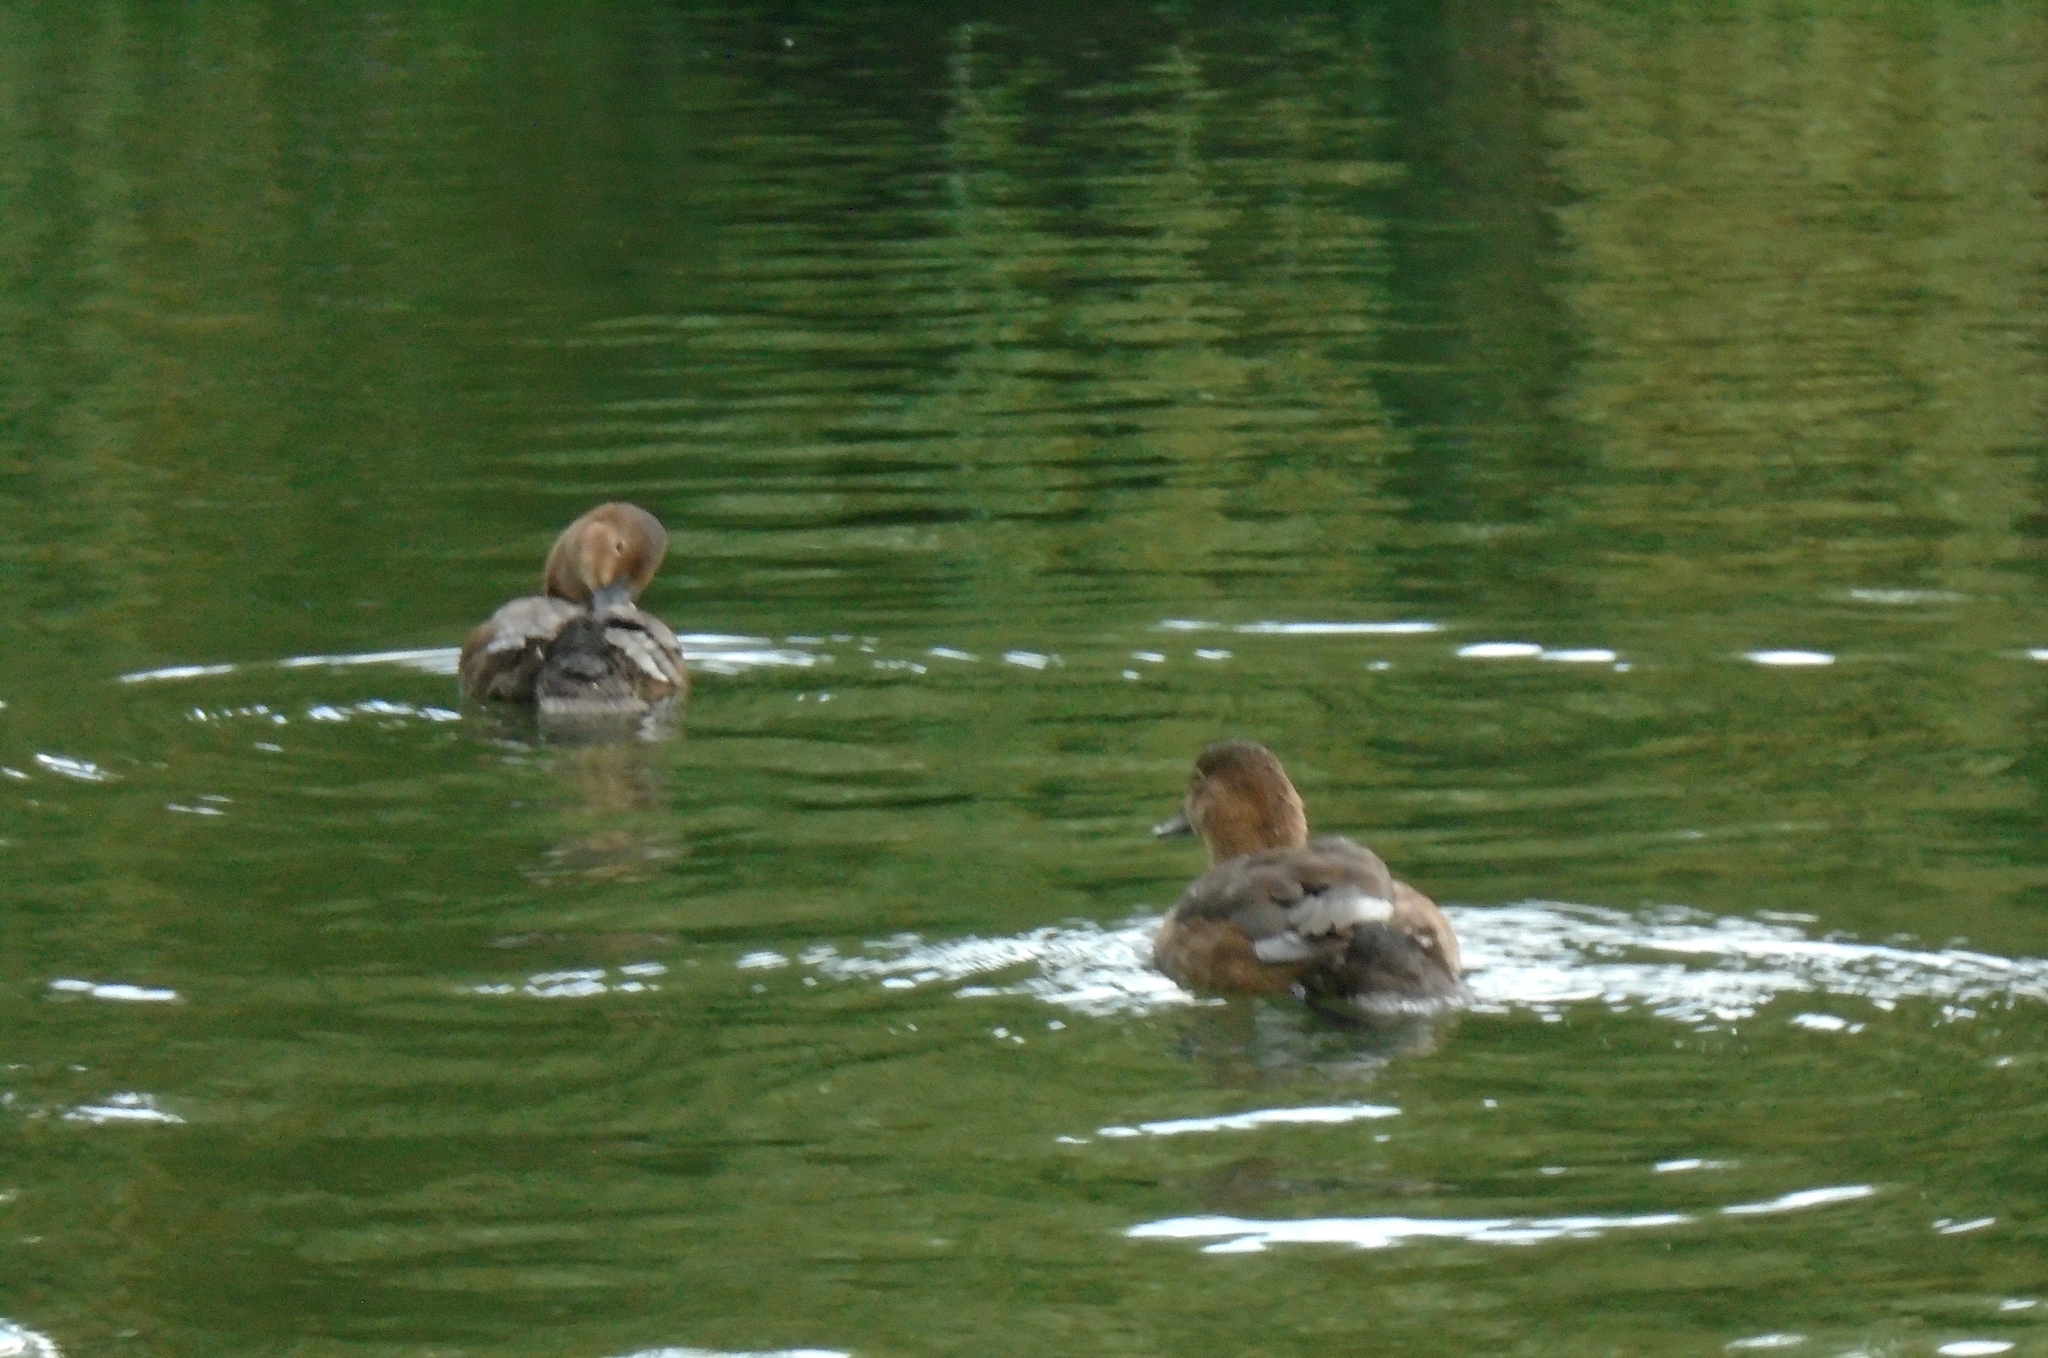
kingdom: Animalia
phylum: Chordata
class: Aves
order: Anseriformes
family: Anatidae
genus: Aythya
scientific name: Aythya ferina
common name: Common pochard
